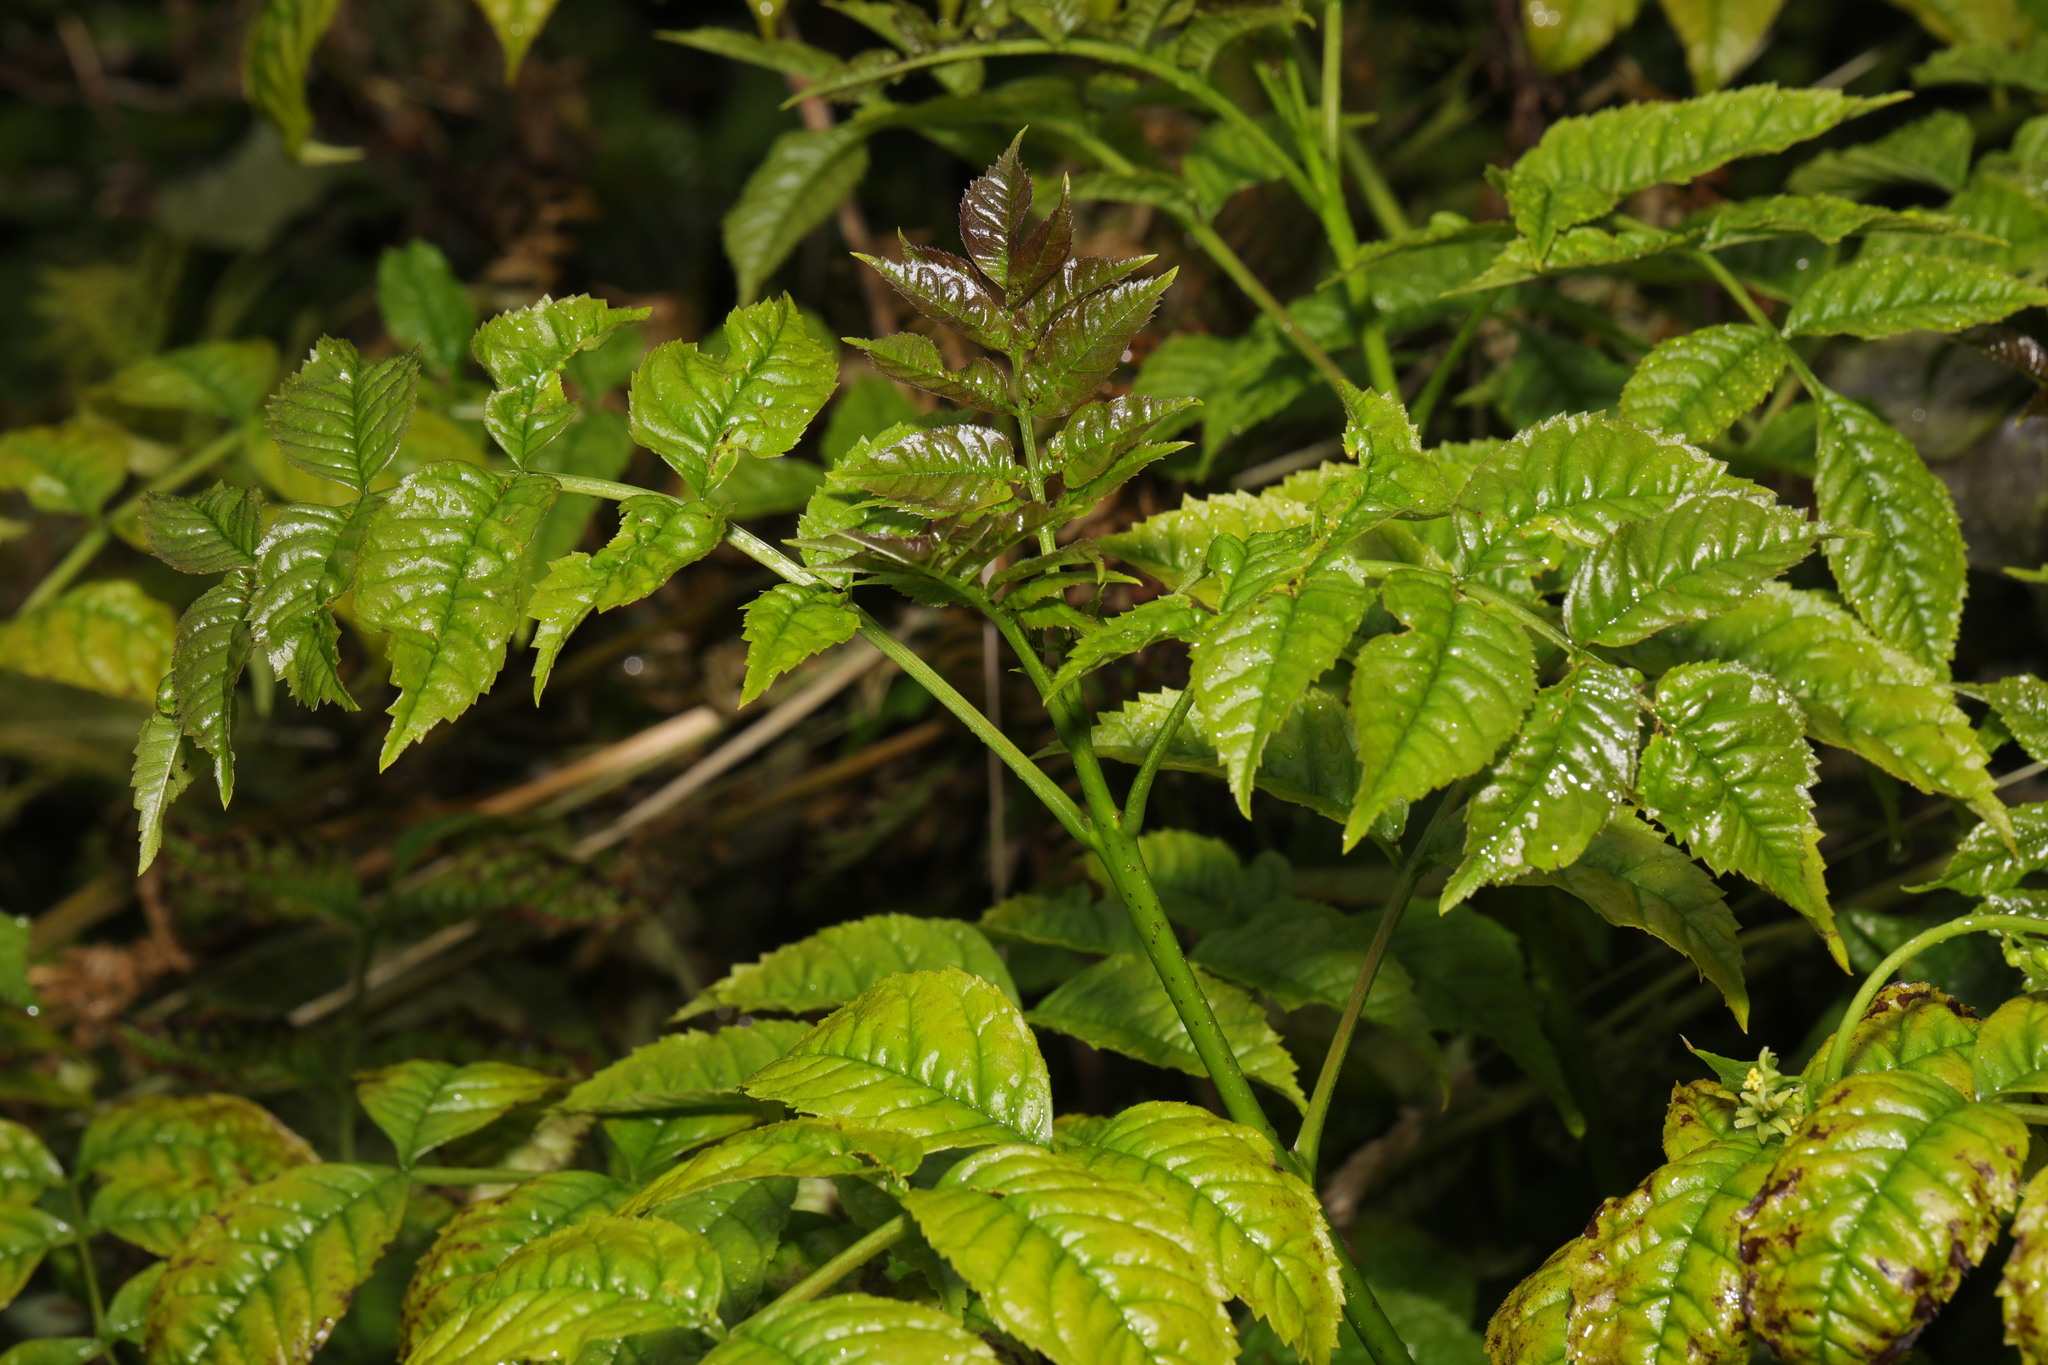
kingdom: Plantae
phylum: Tracheophyta
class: Magnoliopsida
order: Lamiales
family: Oleaceae
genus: Fraxinus
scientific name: Fraxinus excelsior
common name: European ash
